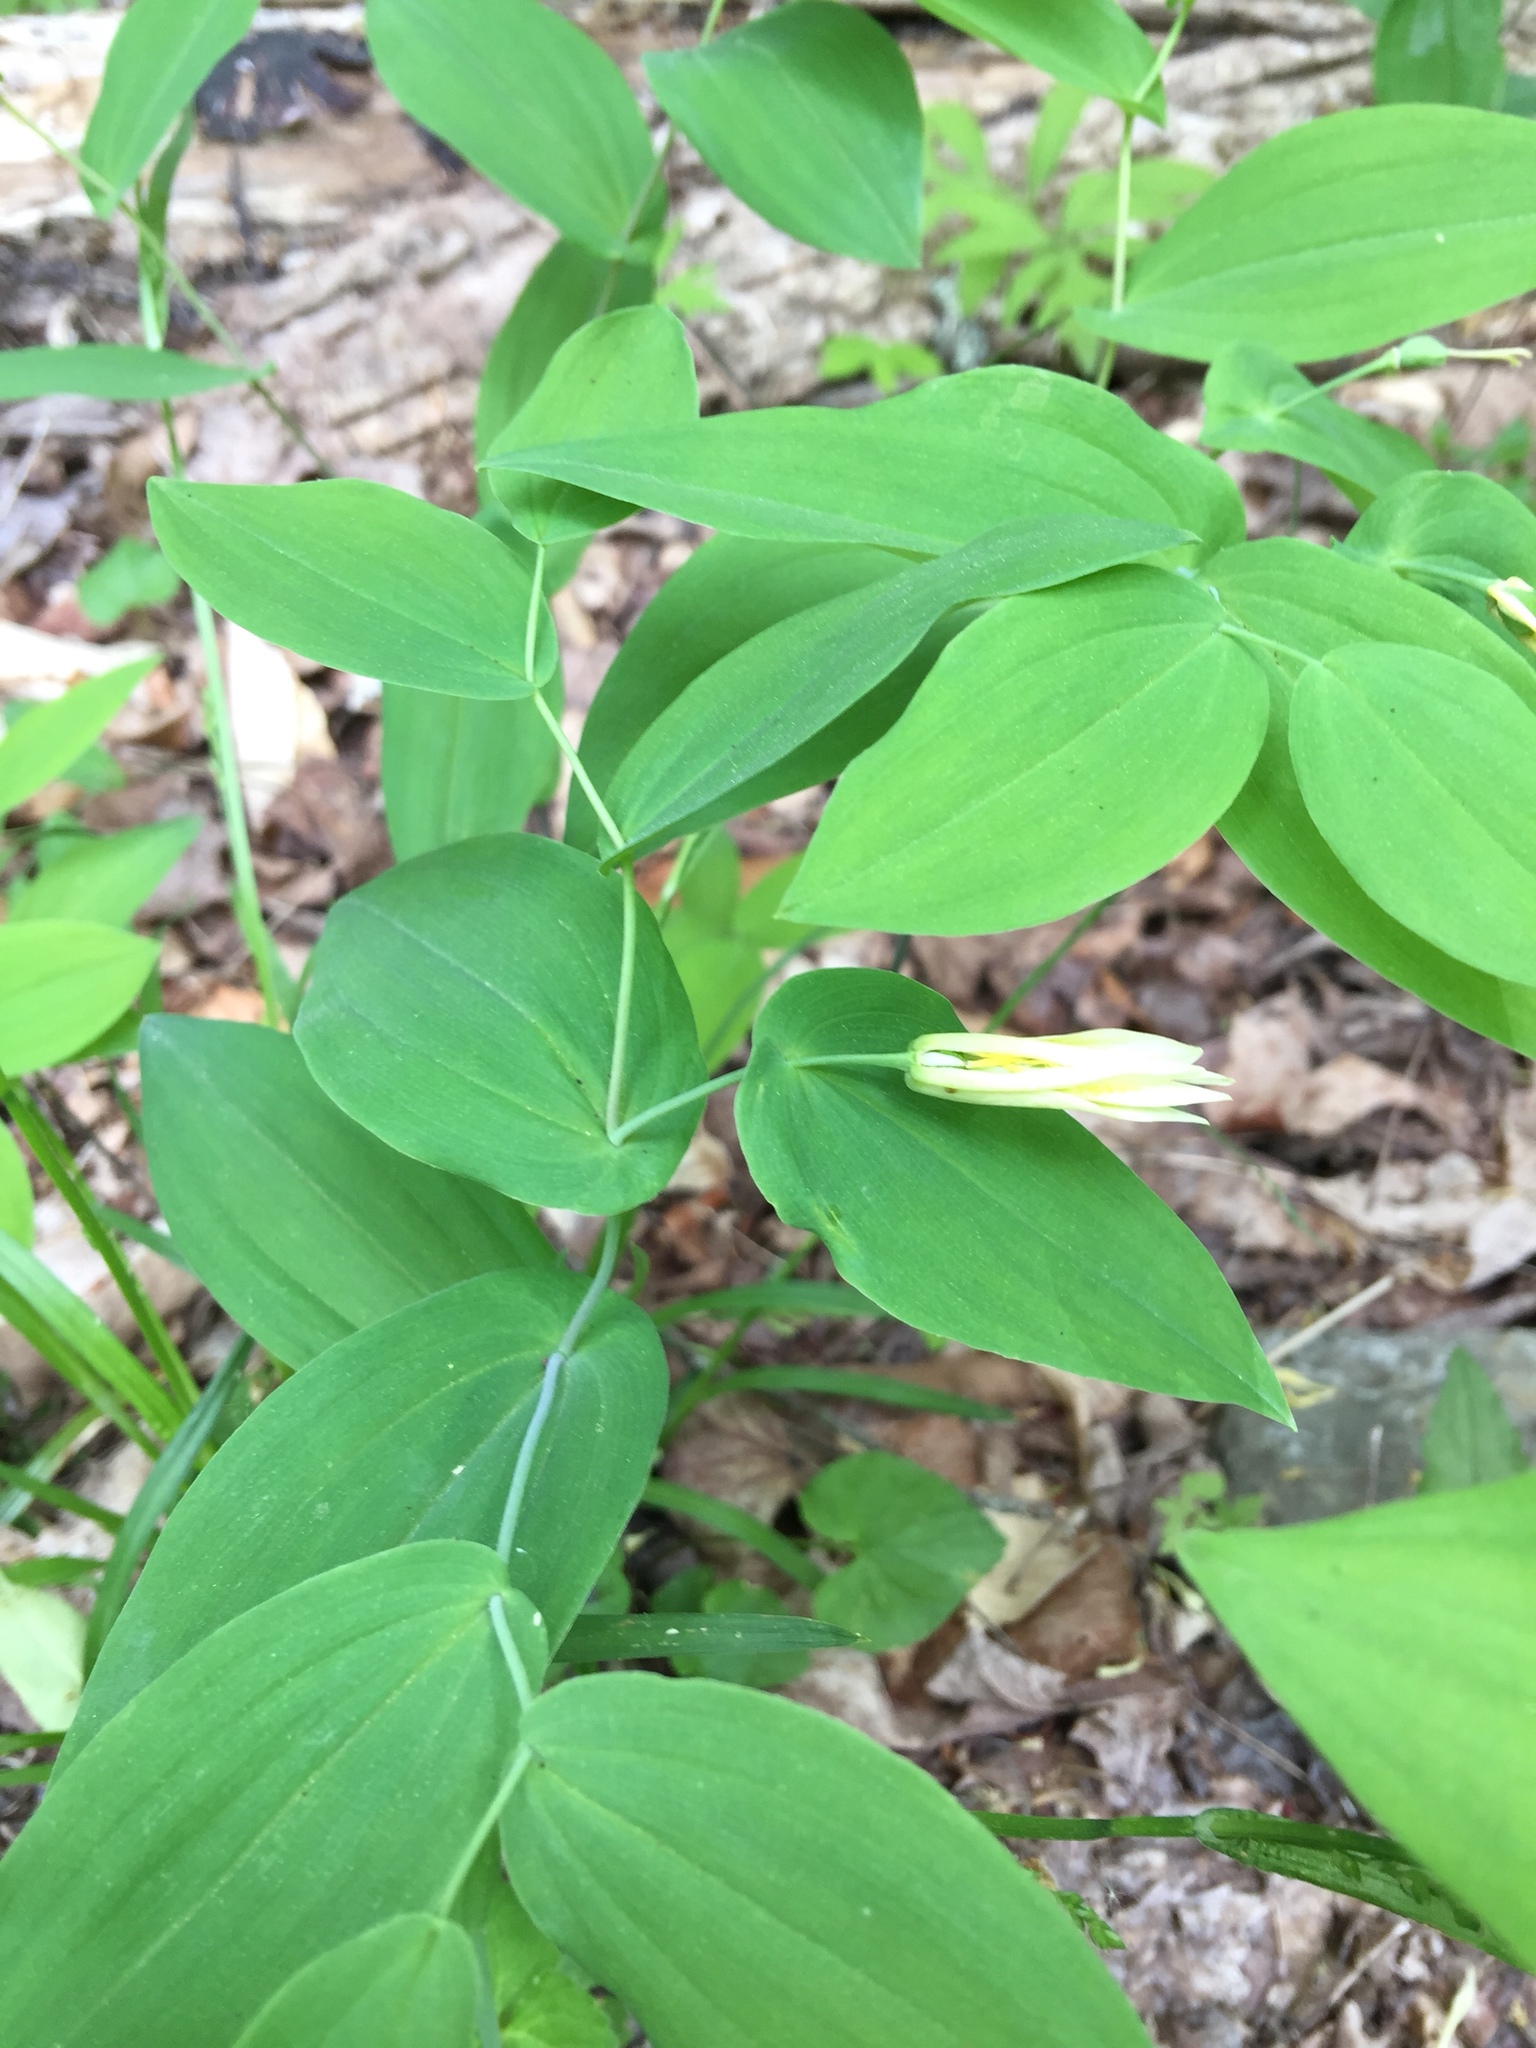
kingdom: Plantae
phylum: Tracheophyta
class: Liliopsida
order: Liliales
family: Colchicaceae
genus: Uvularia
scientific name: Uvularia grandiflora
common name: Bellwort
